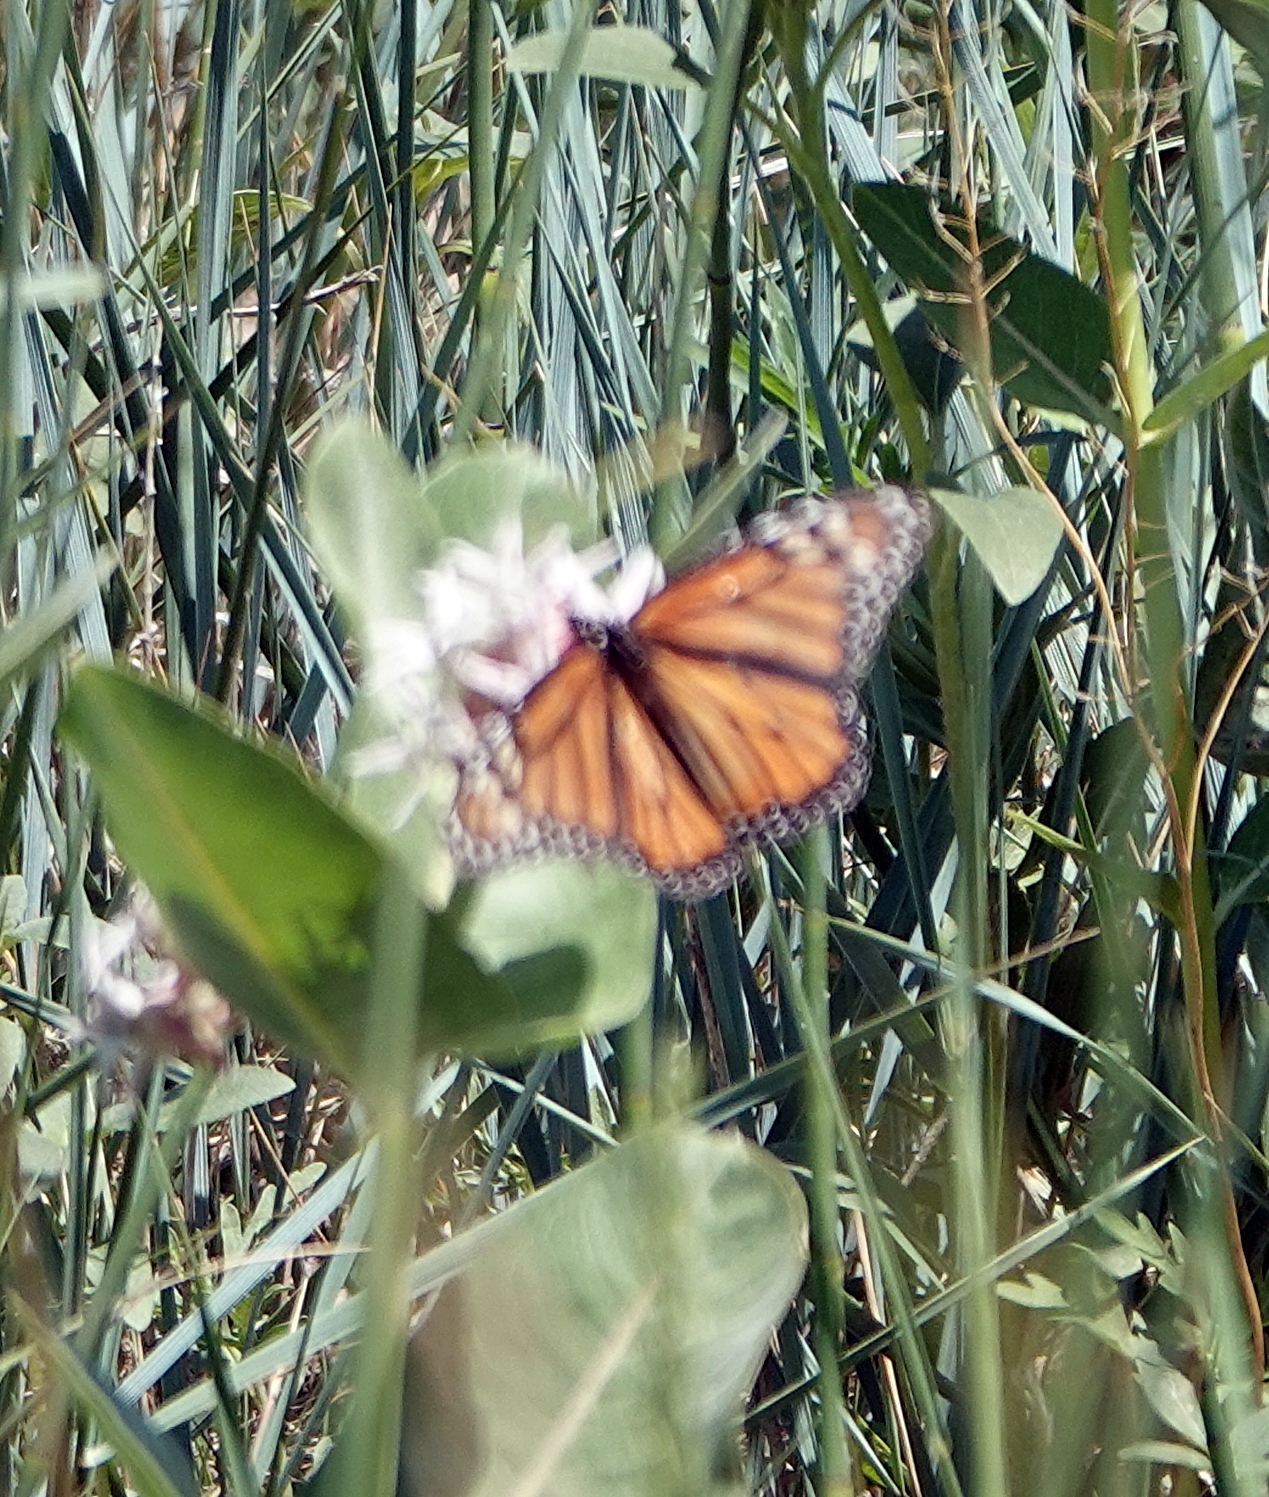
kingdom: Animalia
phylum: Arthropoda
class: Insecta
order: Lepidoptera
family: Nymphalidae
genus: Danaus
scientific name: Danaus plexippus
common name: Monarch
